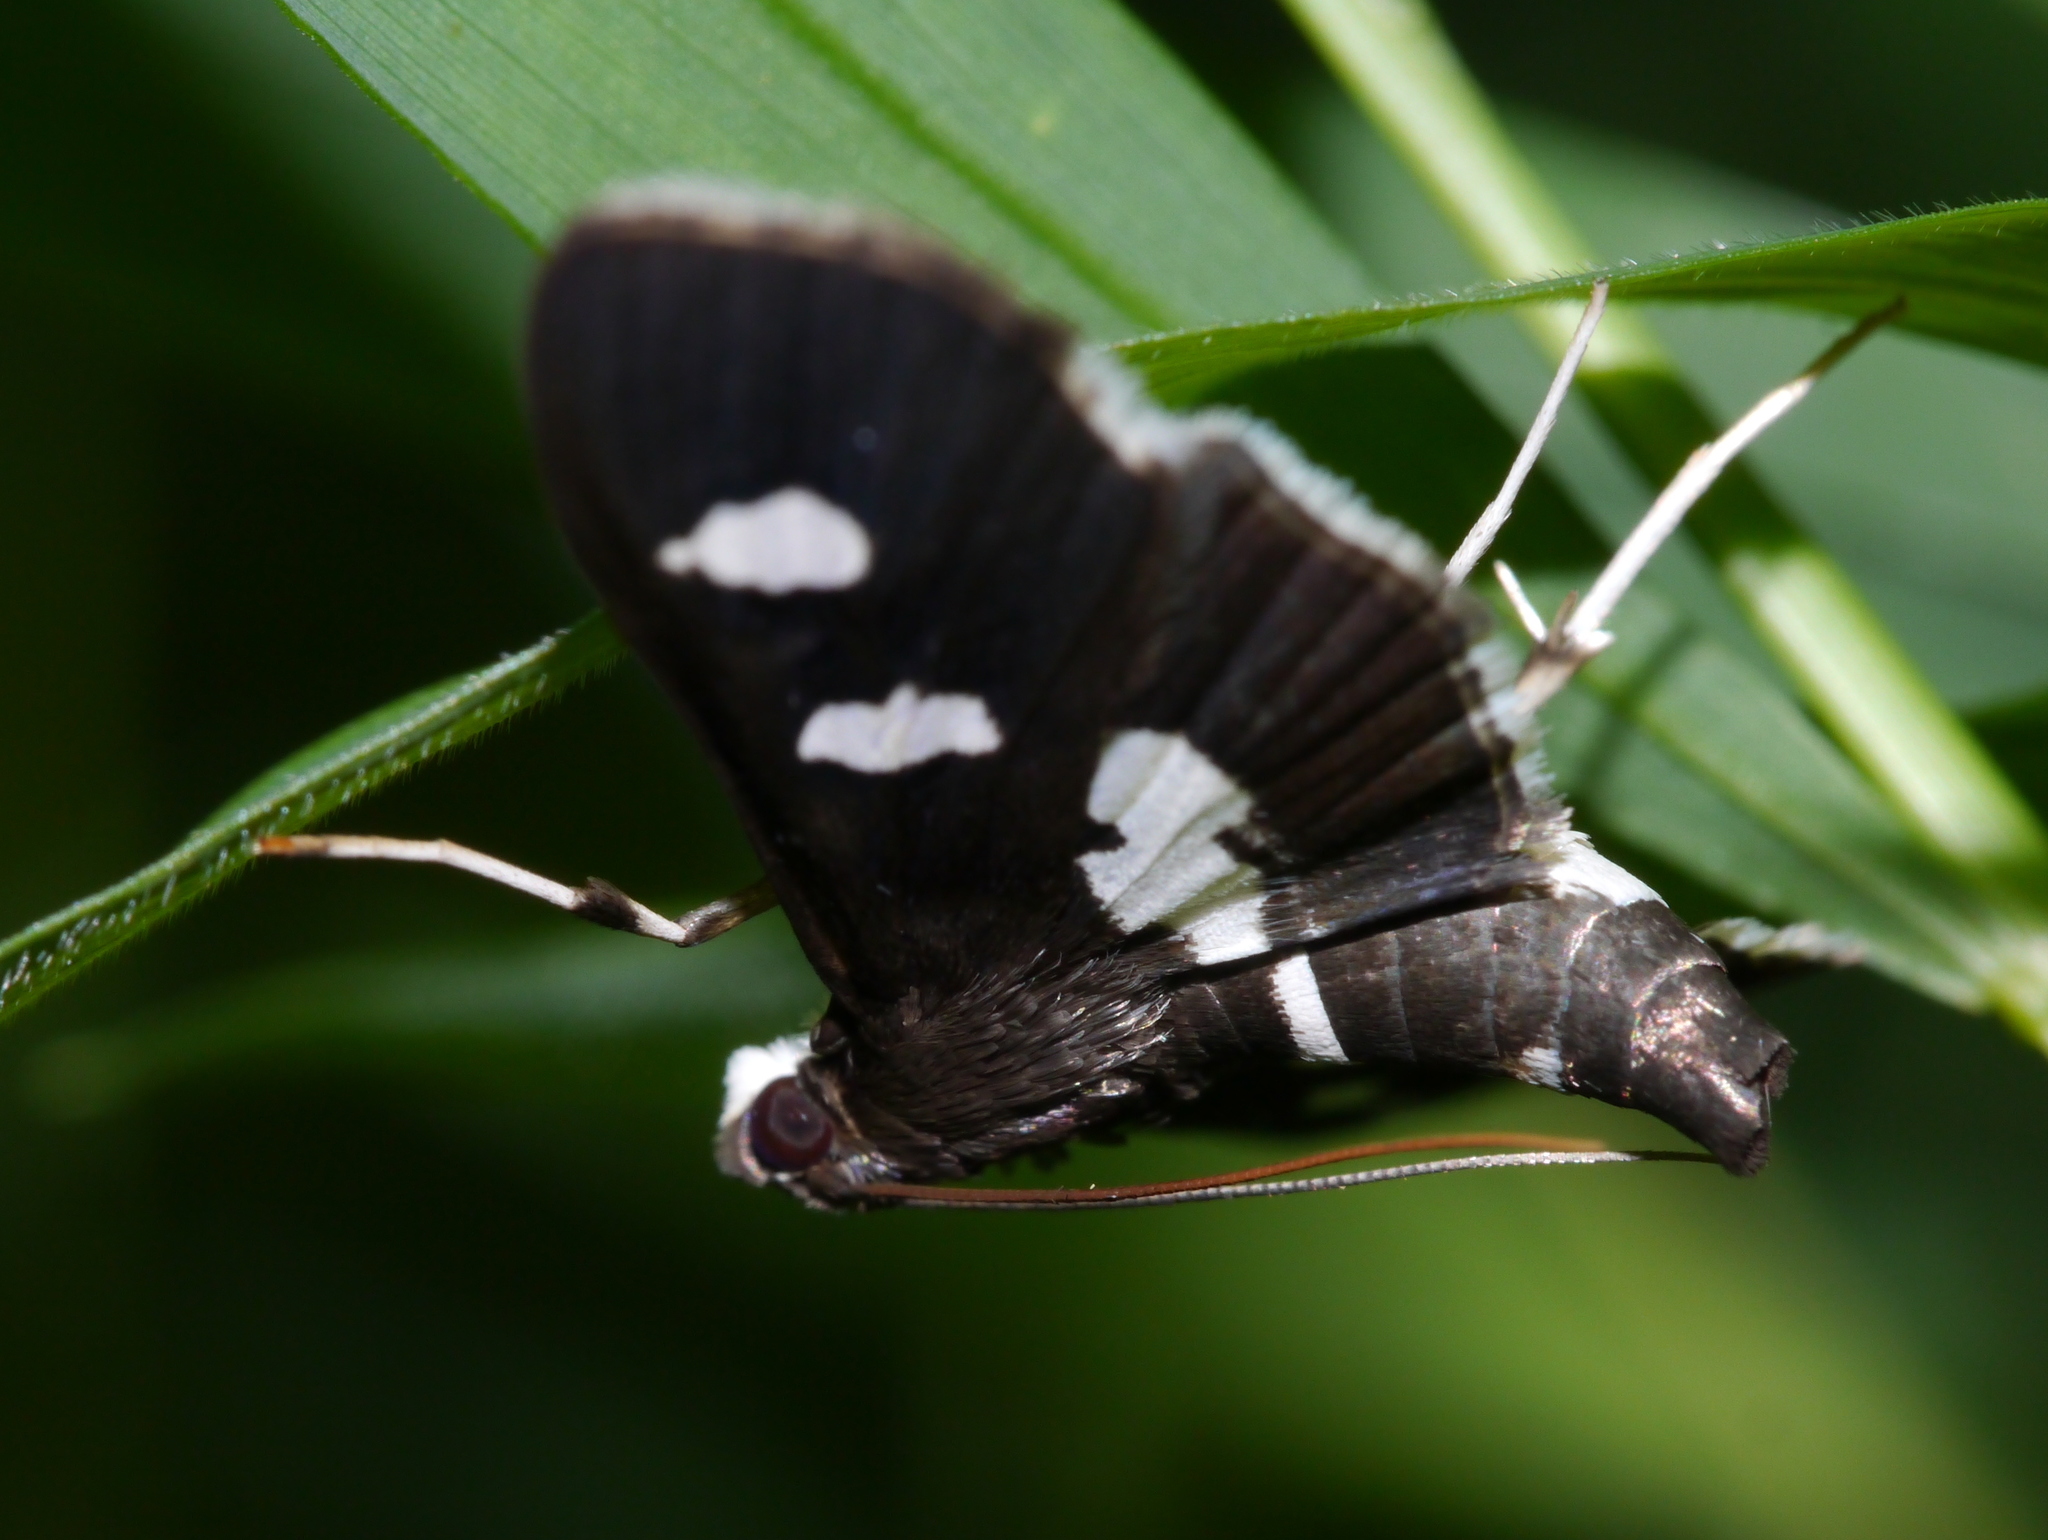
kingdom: Animalia
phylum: Arthropoda
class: Insecta
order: Lepidoptera
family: Crambidae
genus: Desmia
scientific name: Desmia
